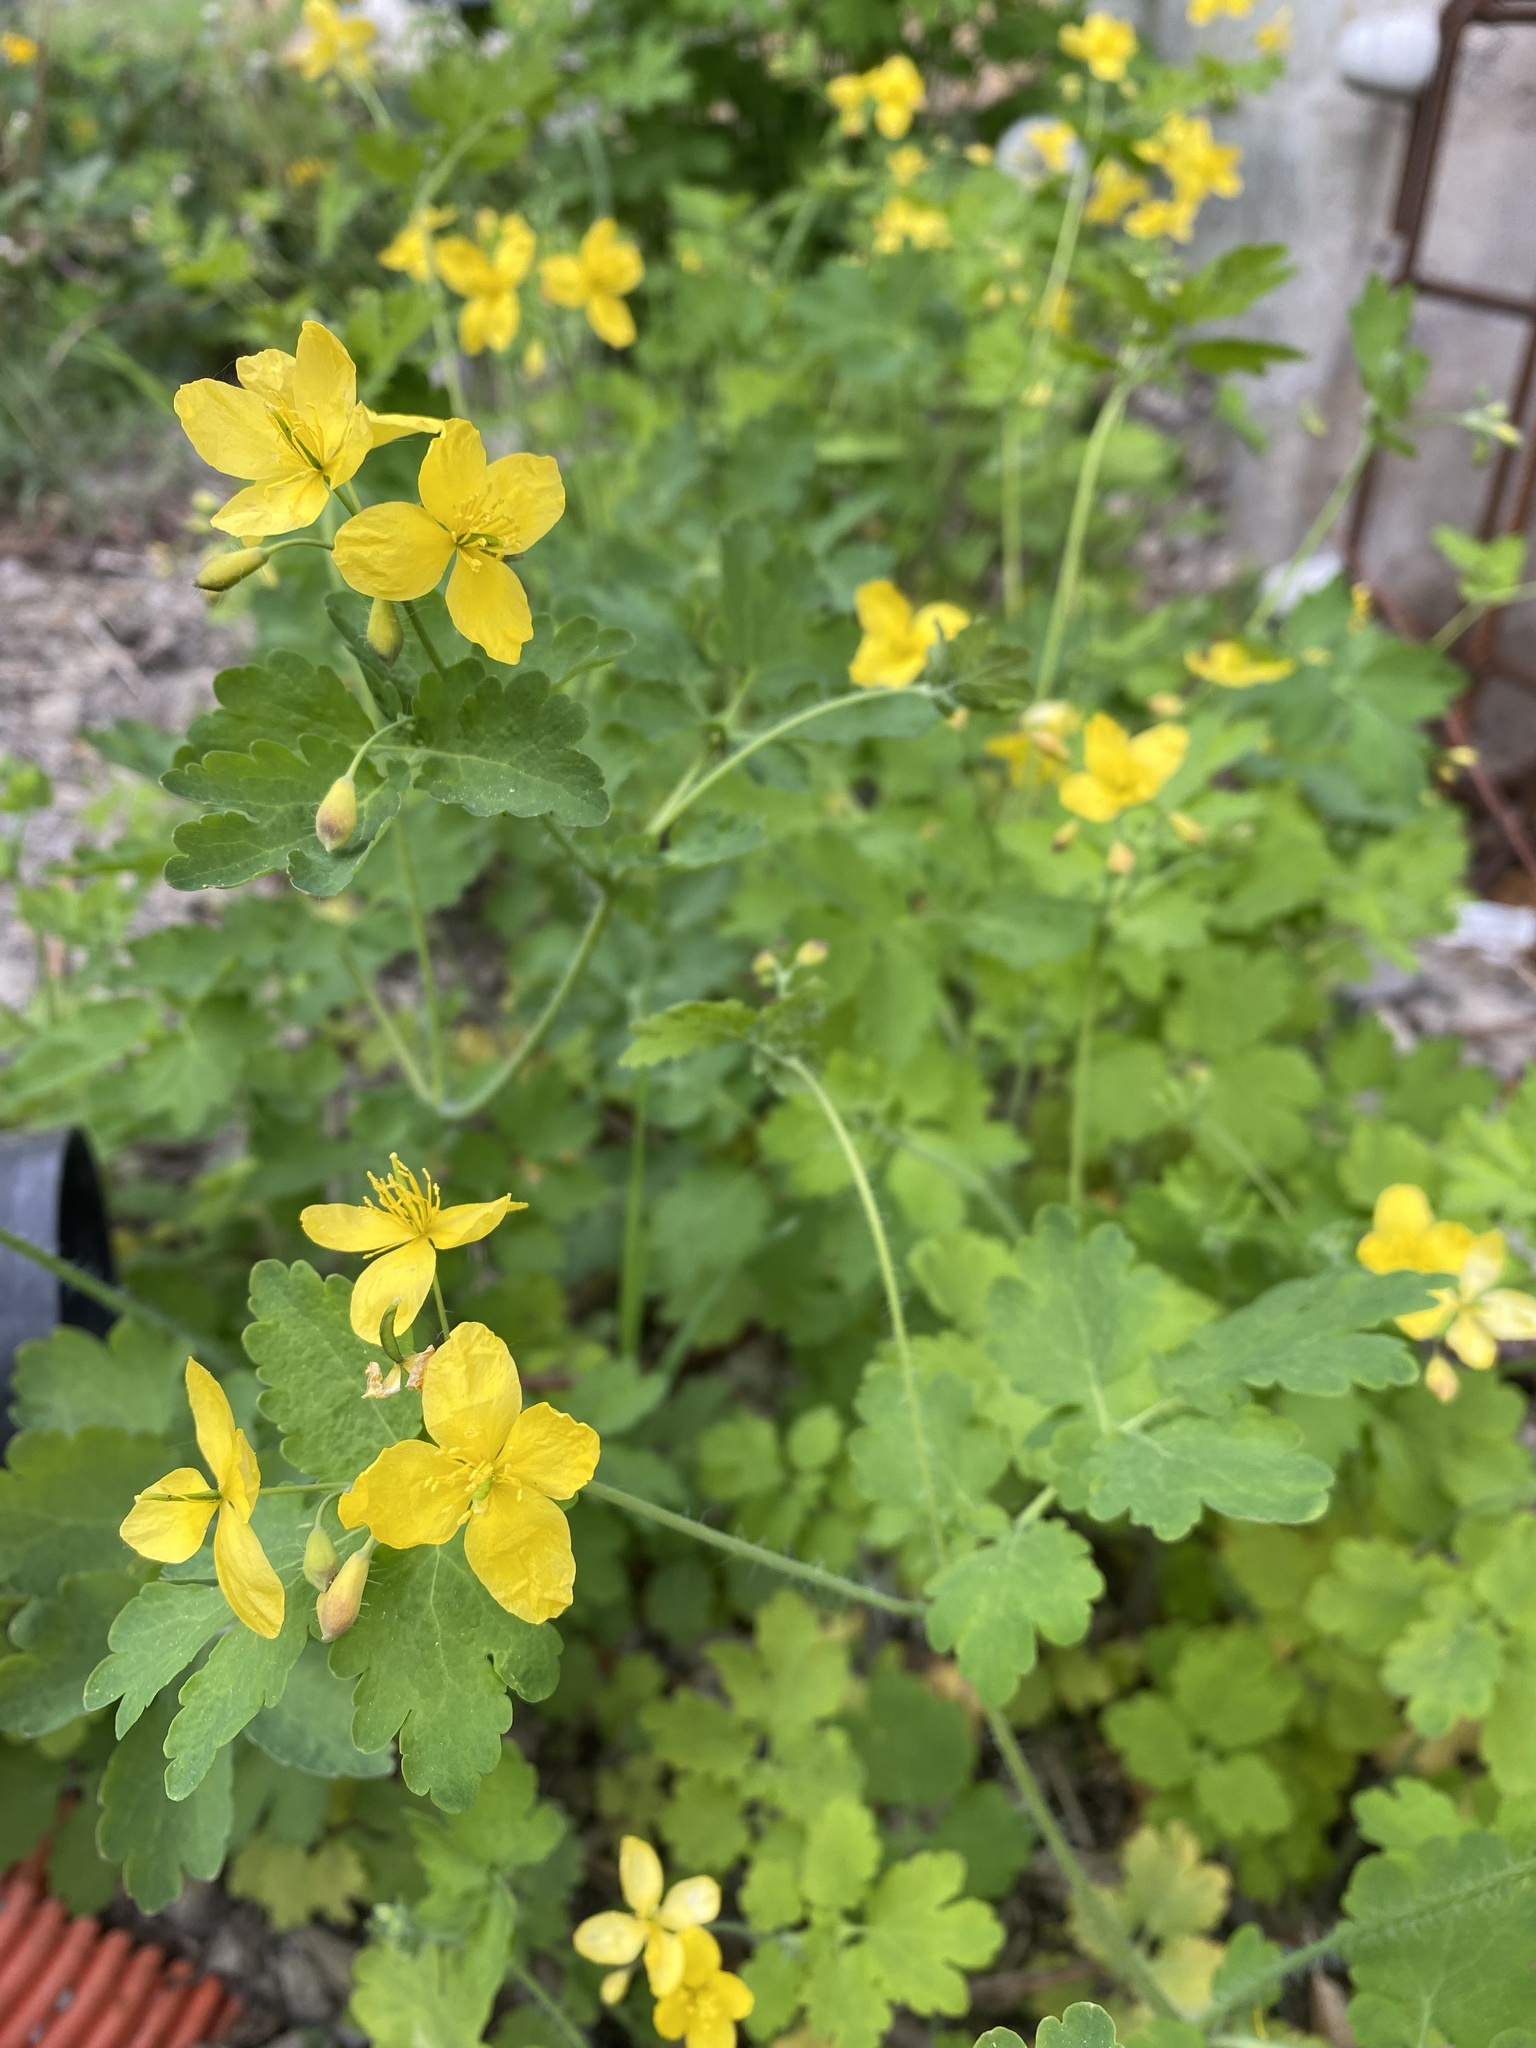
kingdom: Plantae
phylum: Tracheophyta
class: Magnoliopsida
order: Ranunculales
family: Papaveraceae
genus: Chelidonium
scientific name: Chelidonium majus
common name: Greater celandine
